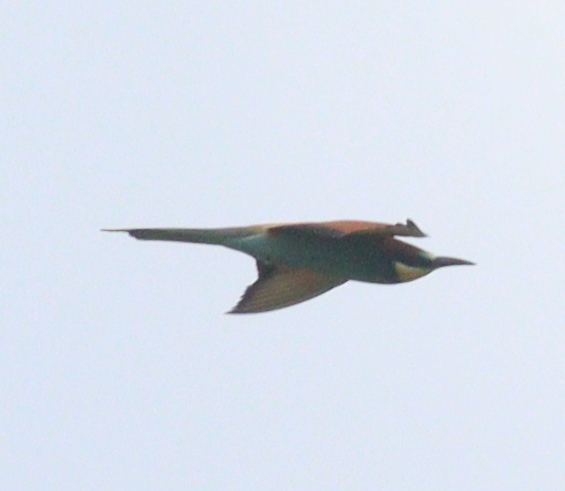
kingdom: Animalia
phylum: Chordata
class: Aves
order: Coraciiformes
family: Meropidae
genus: Merops
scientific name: Merops apiaster
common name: European bee-eater
